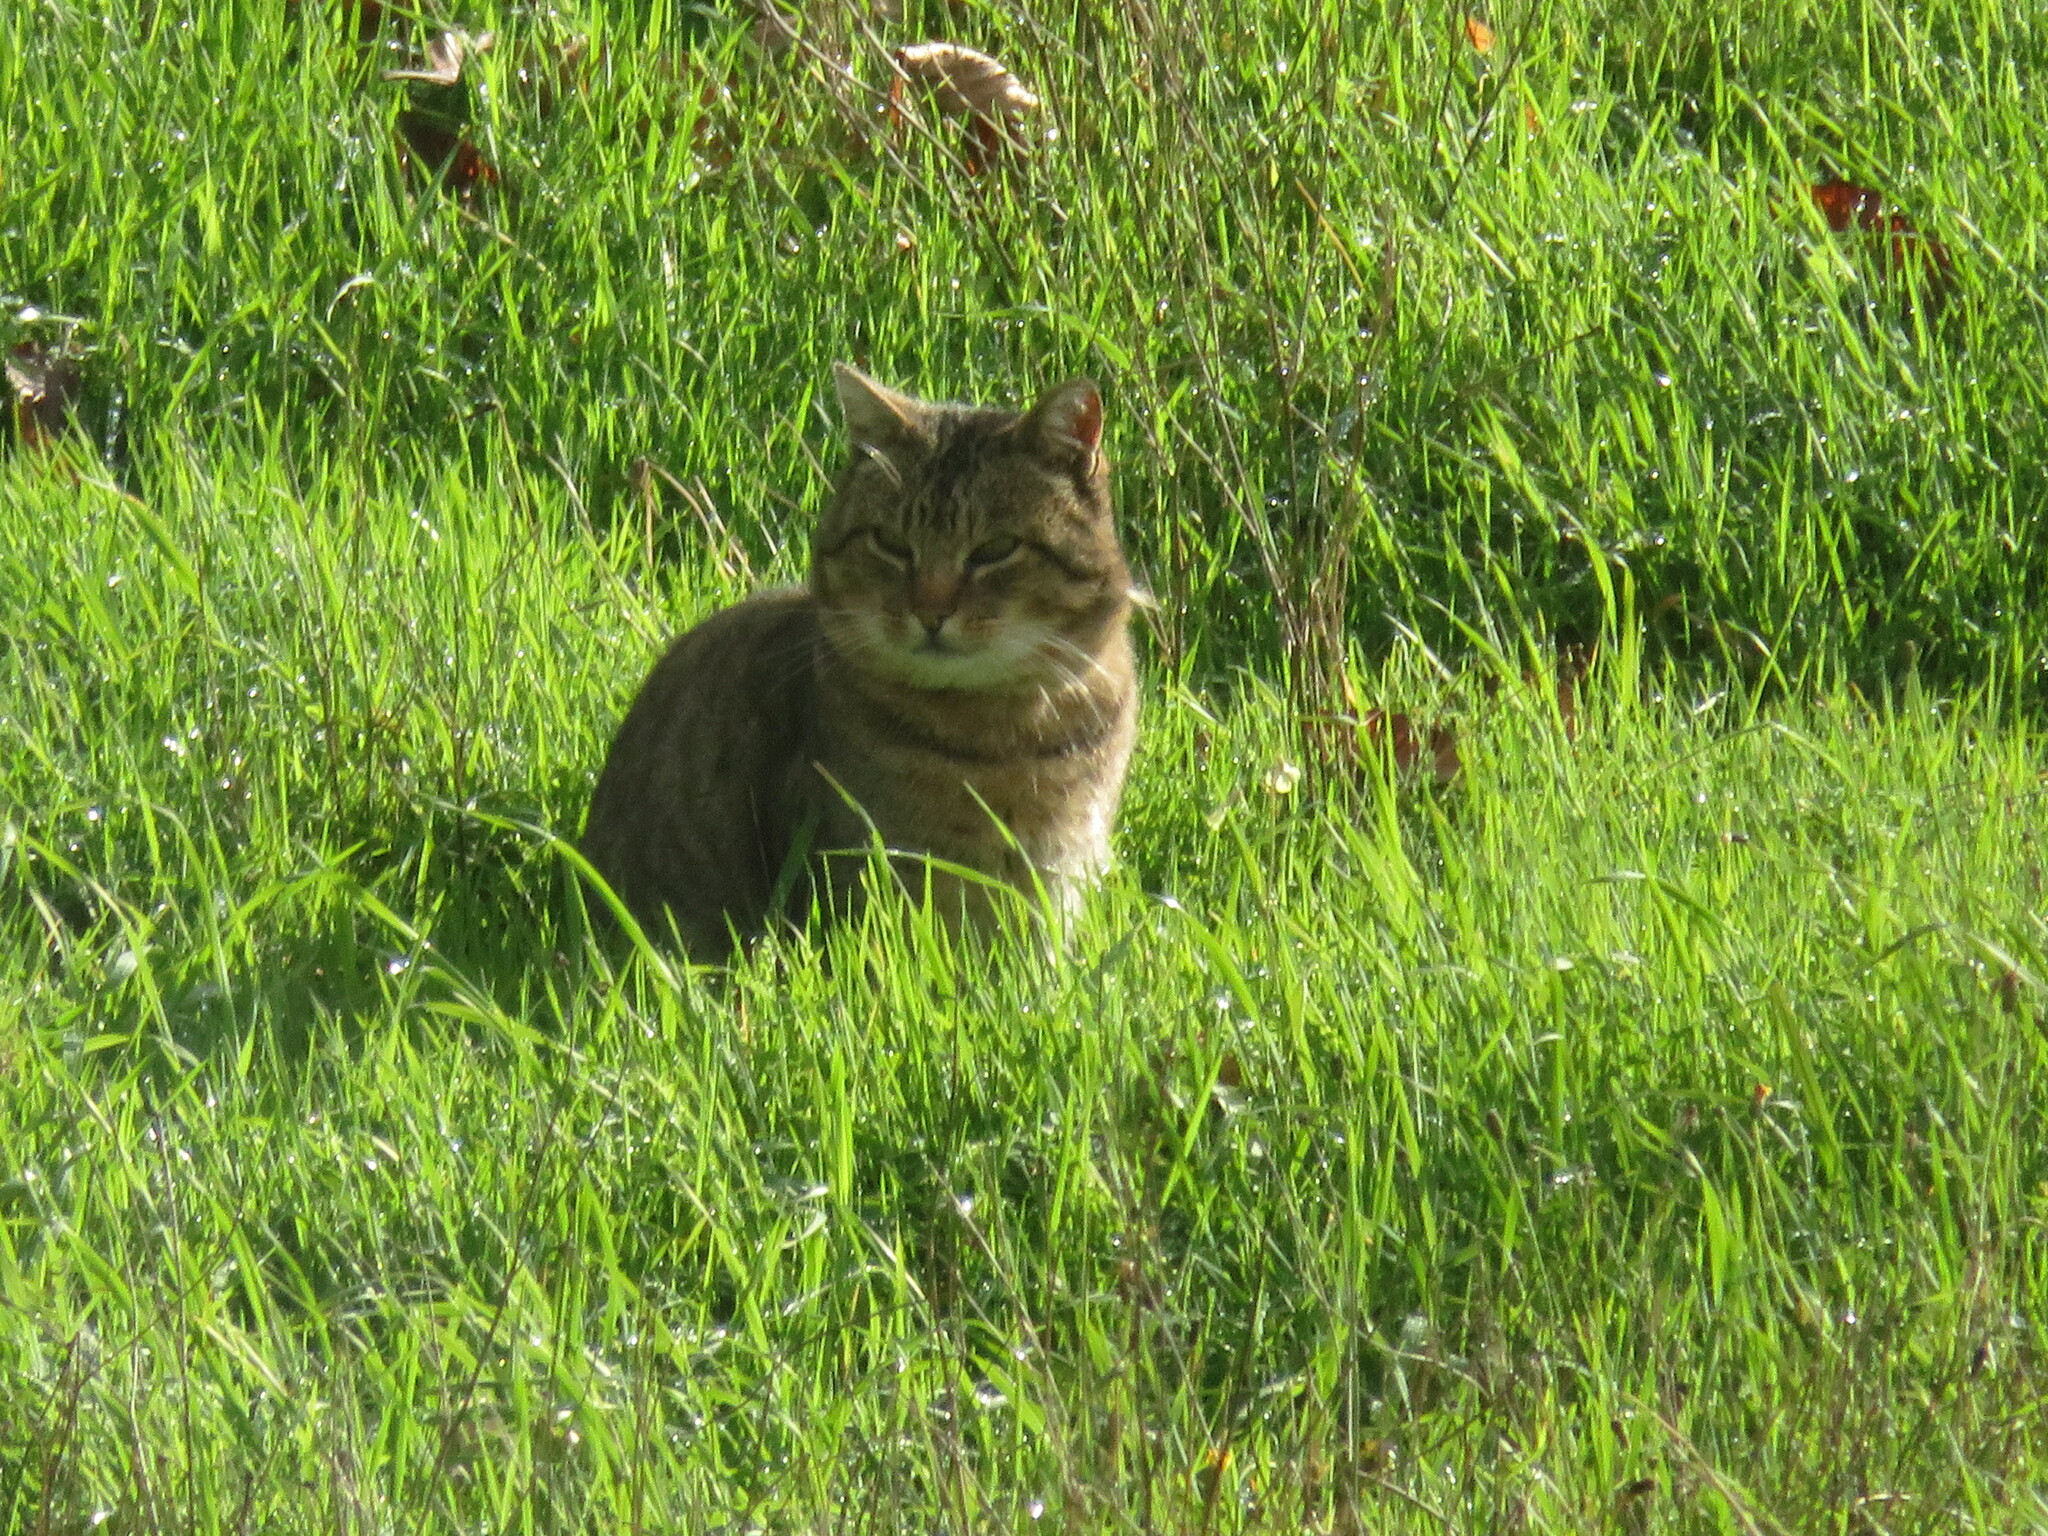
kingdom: Animalia
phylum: Chordata
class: Mammalia
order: Carnivora
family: Felidae
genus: Felis
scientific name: Felis catus
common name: Domestic cat
